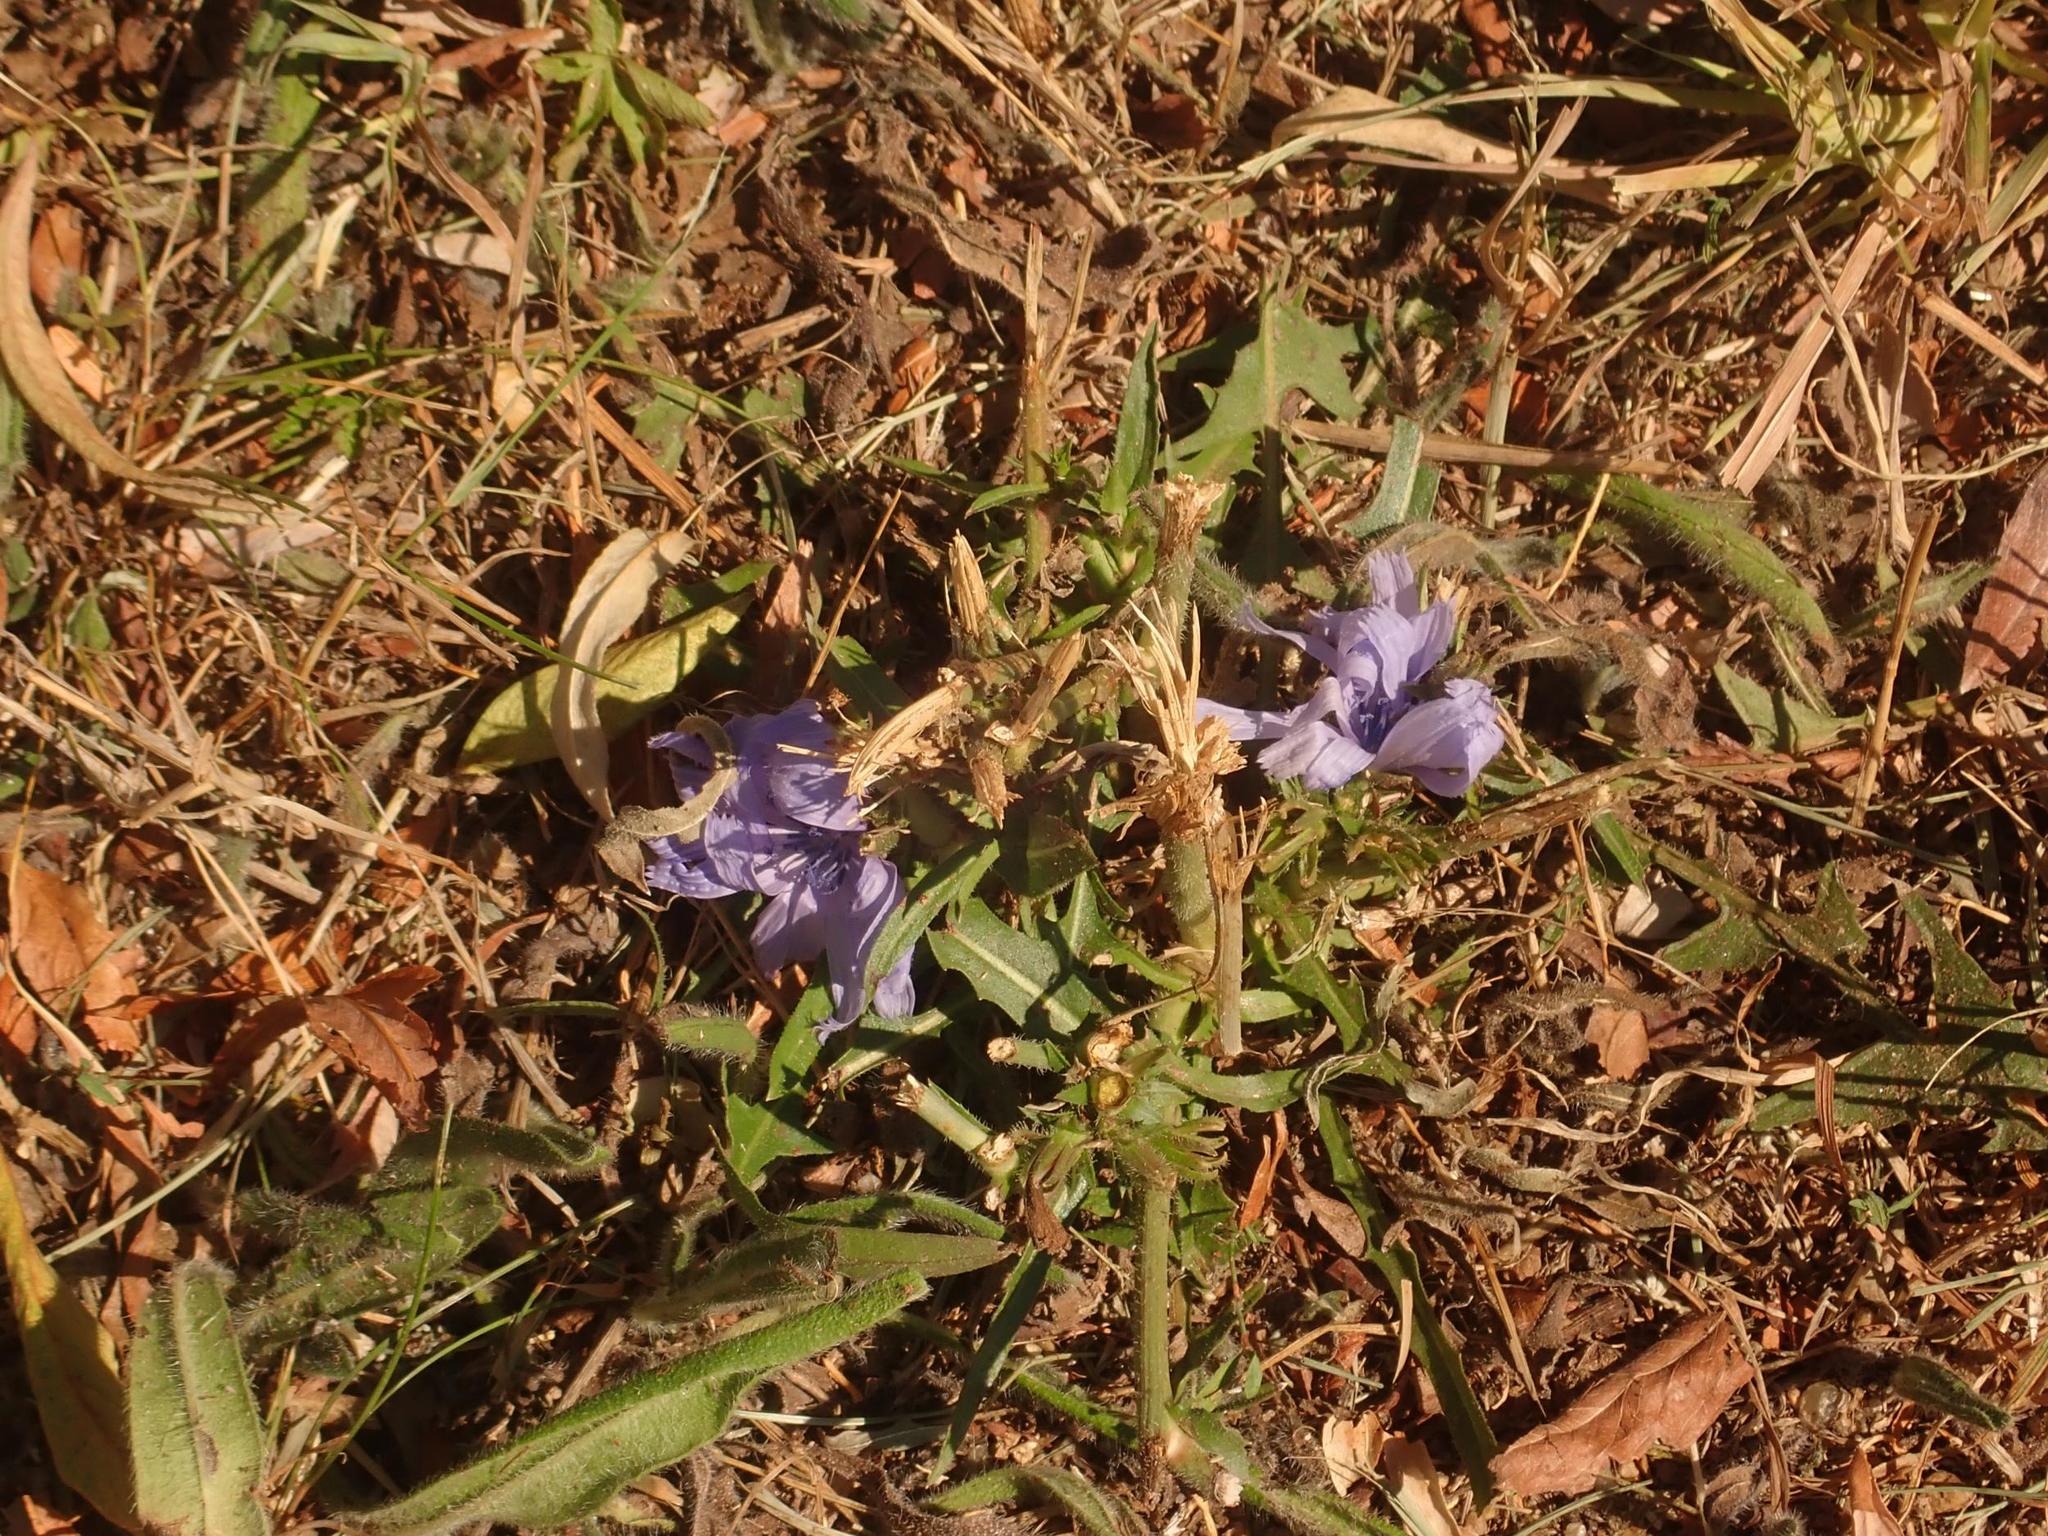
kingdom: Plantae
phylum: Tracheophyta
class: Magnoliopsida
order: Asterales
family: Asteraceae
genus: Cichorium
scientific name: Cichorium intybus
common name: Chicory
